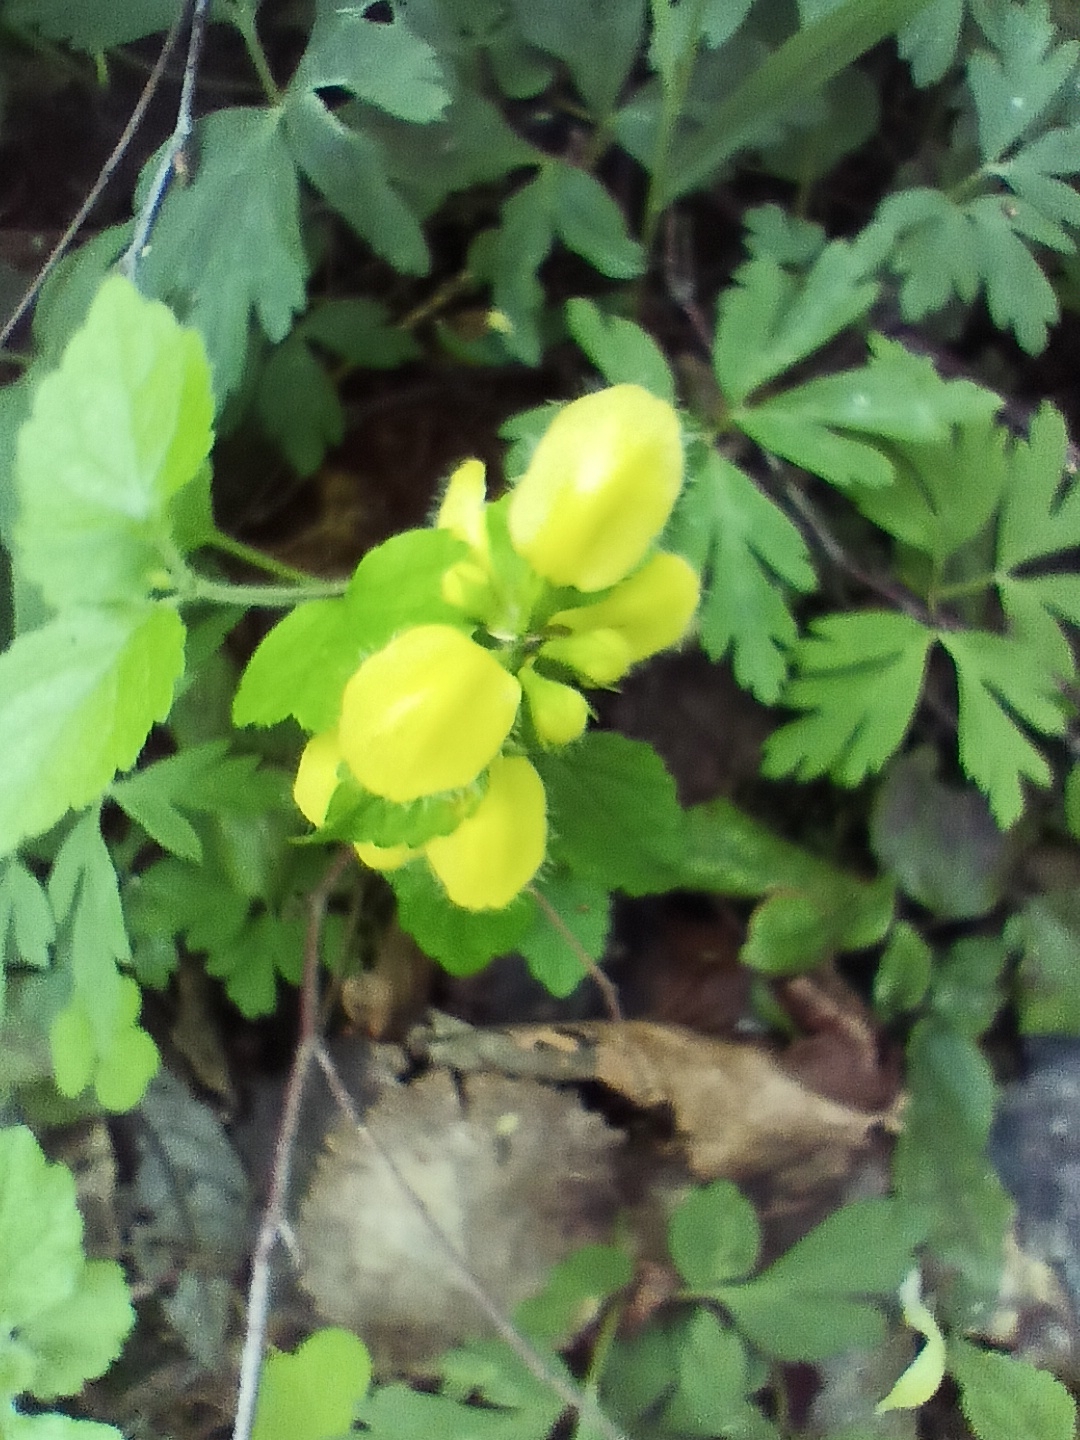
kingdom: Plantae
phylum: Tracheophyta
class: Magnoliopsida
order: Lamiales
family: Lamiaceae
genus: Lamium
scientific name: Lamium galeobdolon
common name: Yellow archangel
